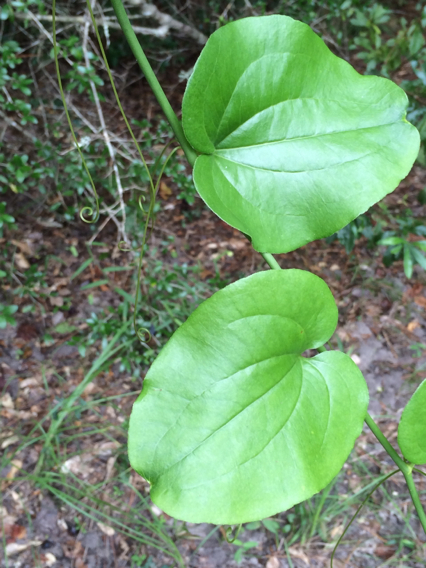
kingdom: Plantae
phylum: Tracheophyta
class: Liliopsida
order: Liliales
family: Smilacaceae
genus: Smilax
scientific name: Smilax rotundifolia
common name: Bullbriar
